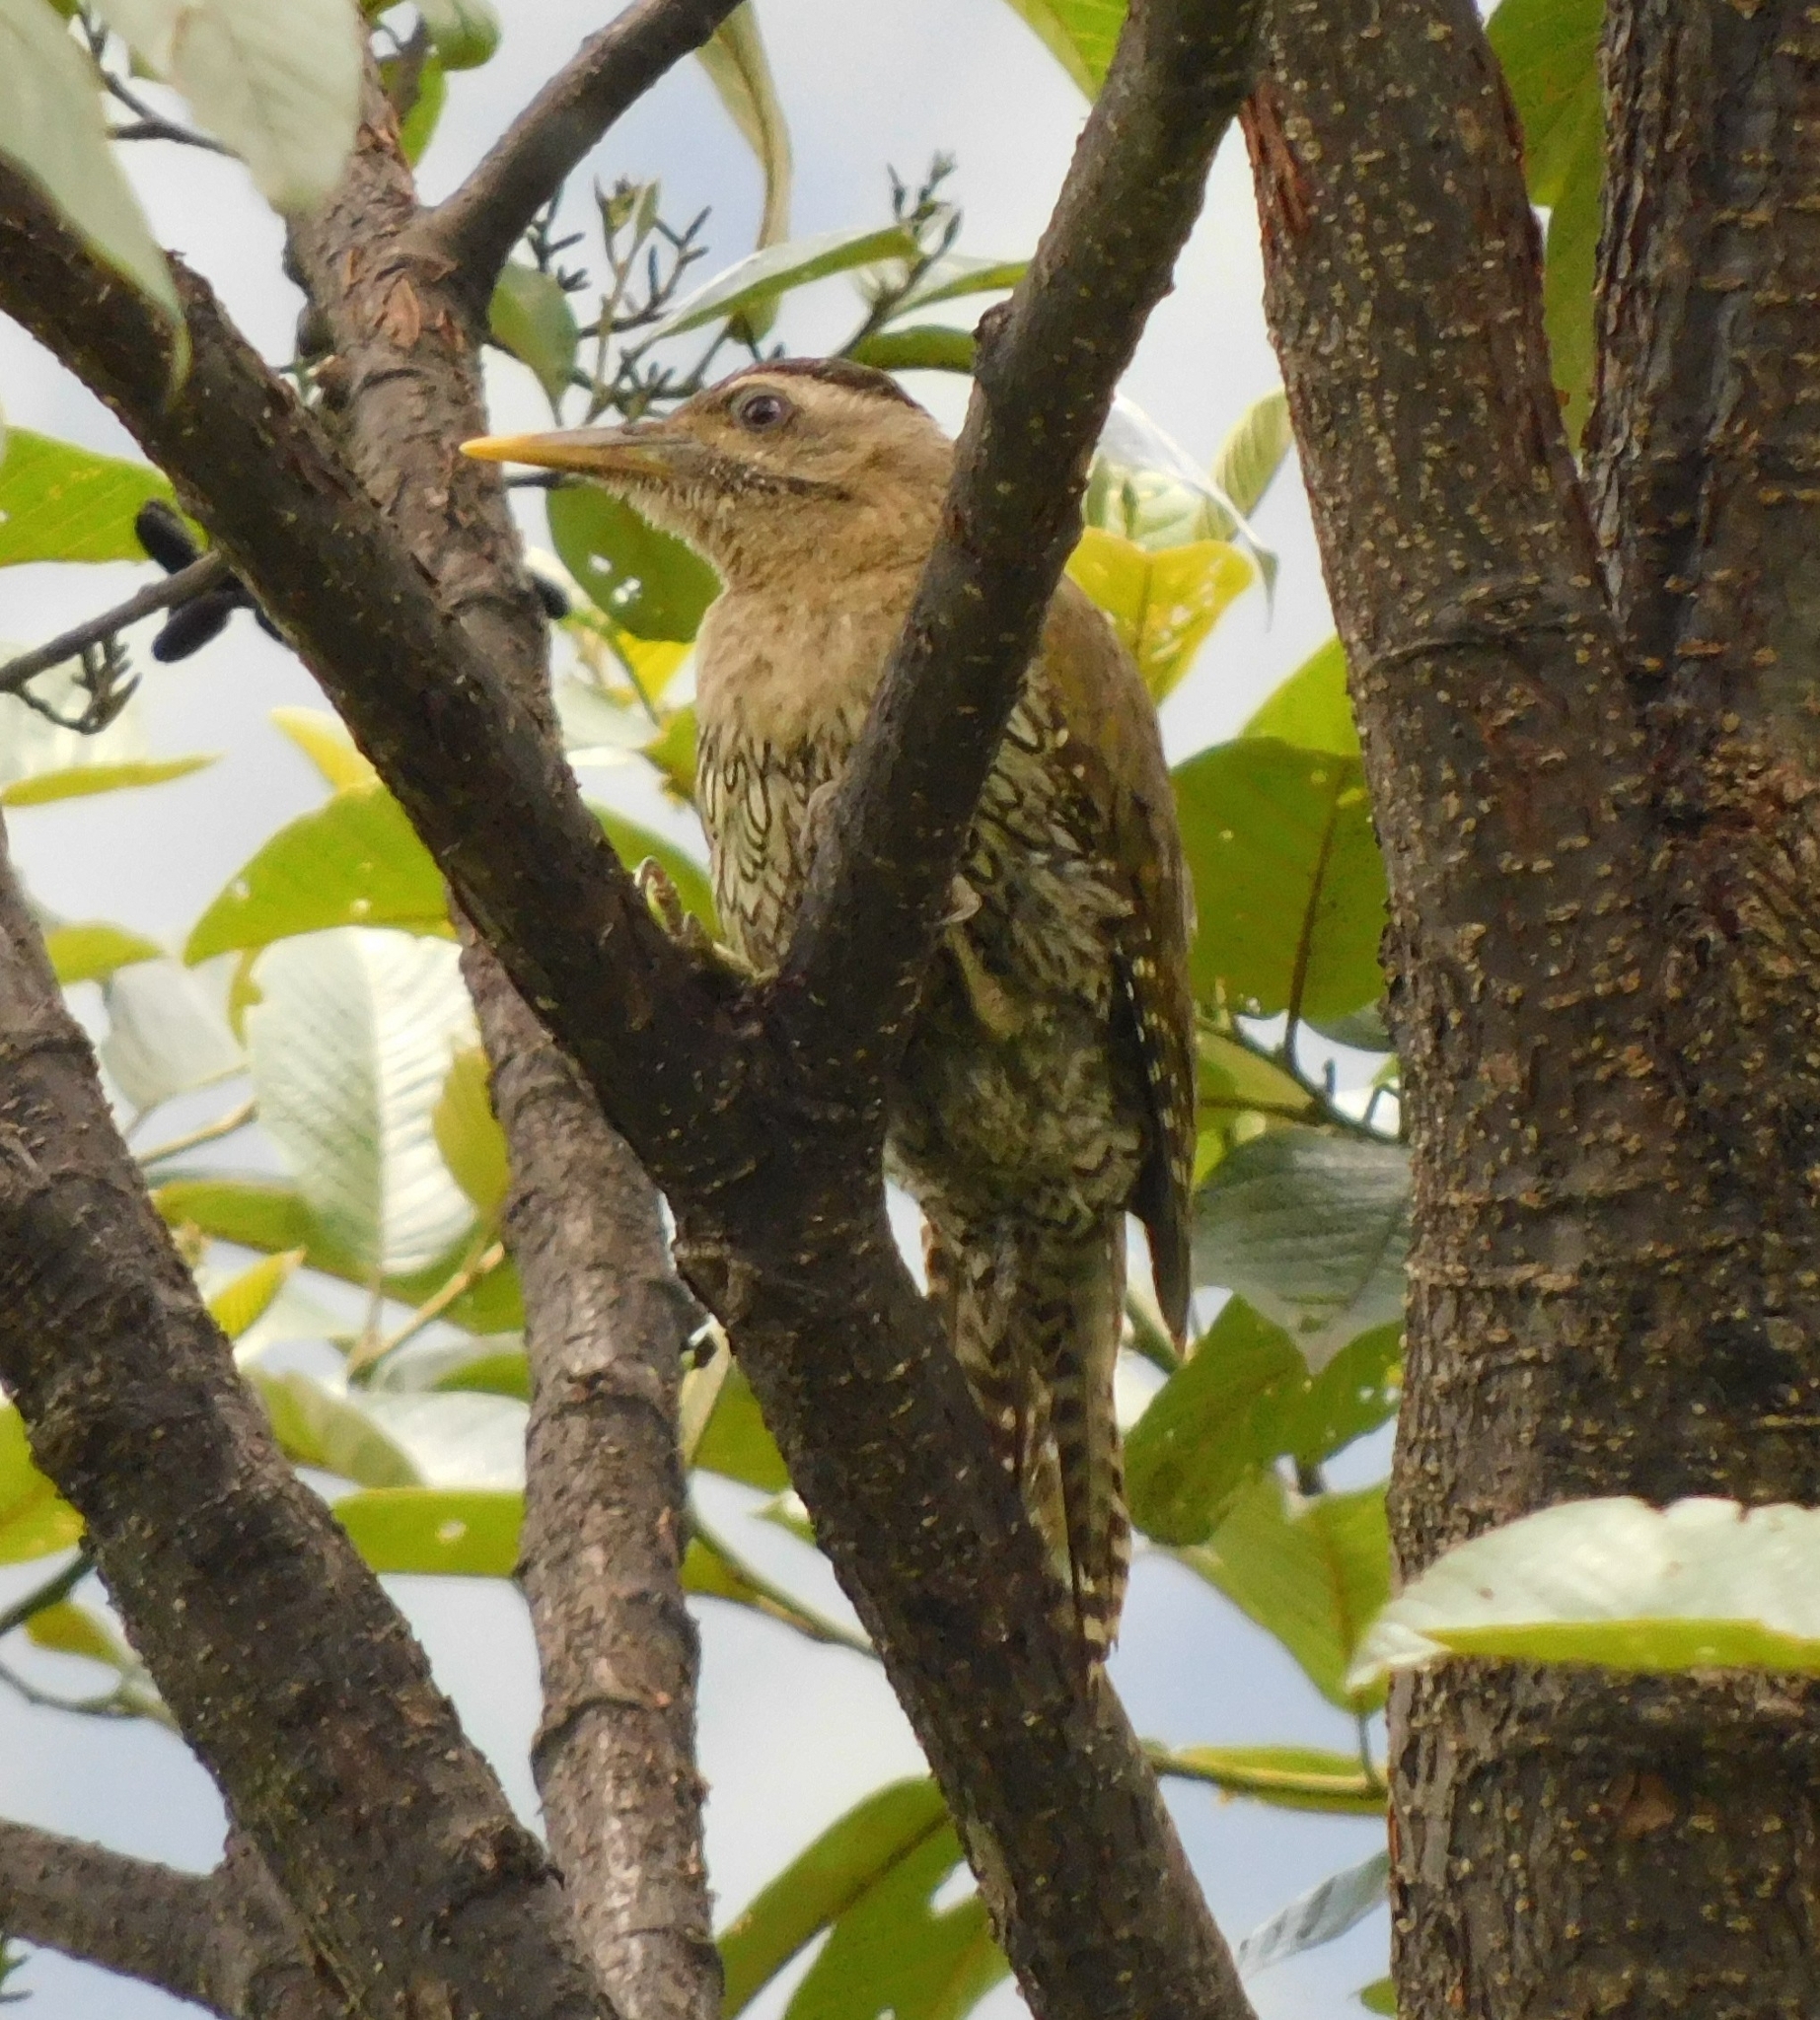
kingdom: Animalia
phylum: Chordata
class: Aves
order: Piciformes
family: Picidae
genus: Picus
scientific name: Picus squamatus
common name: Scaly-bellied woodpecker
